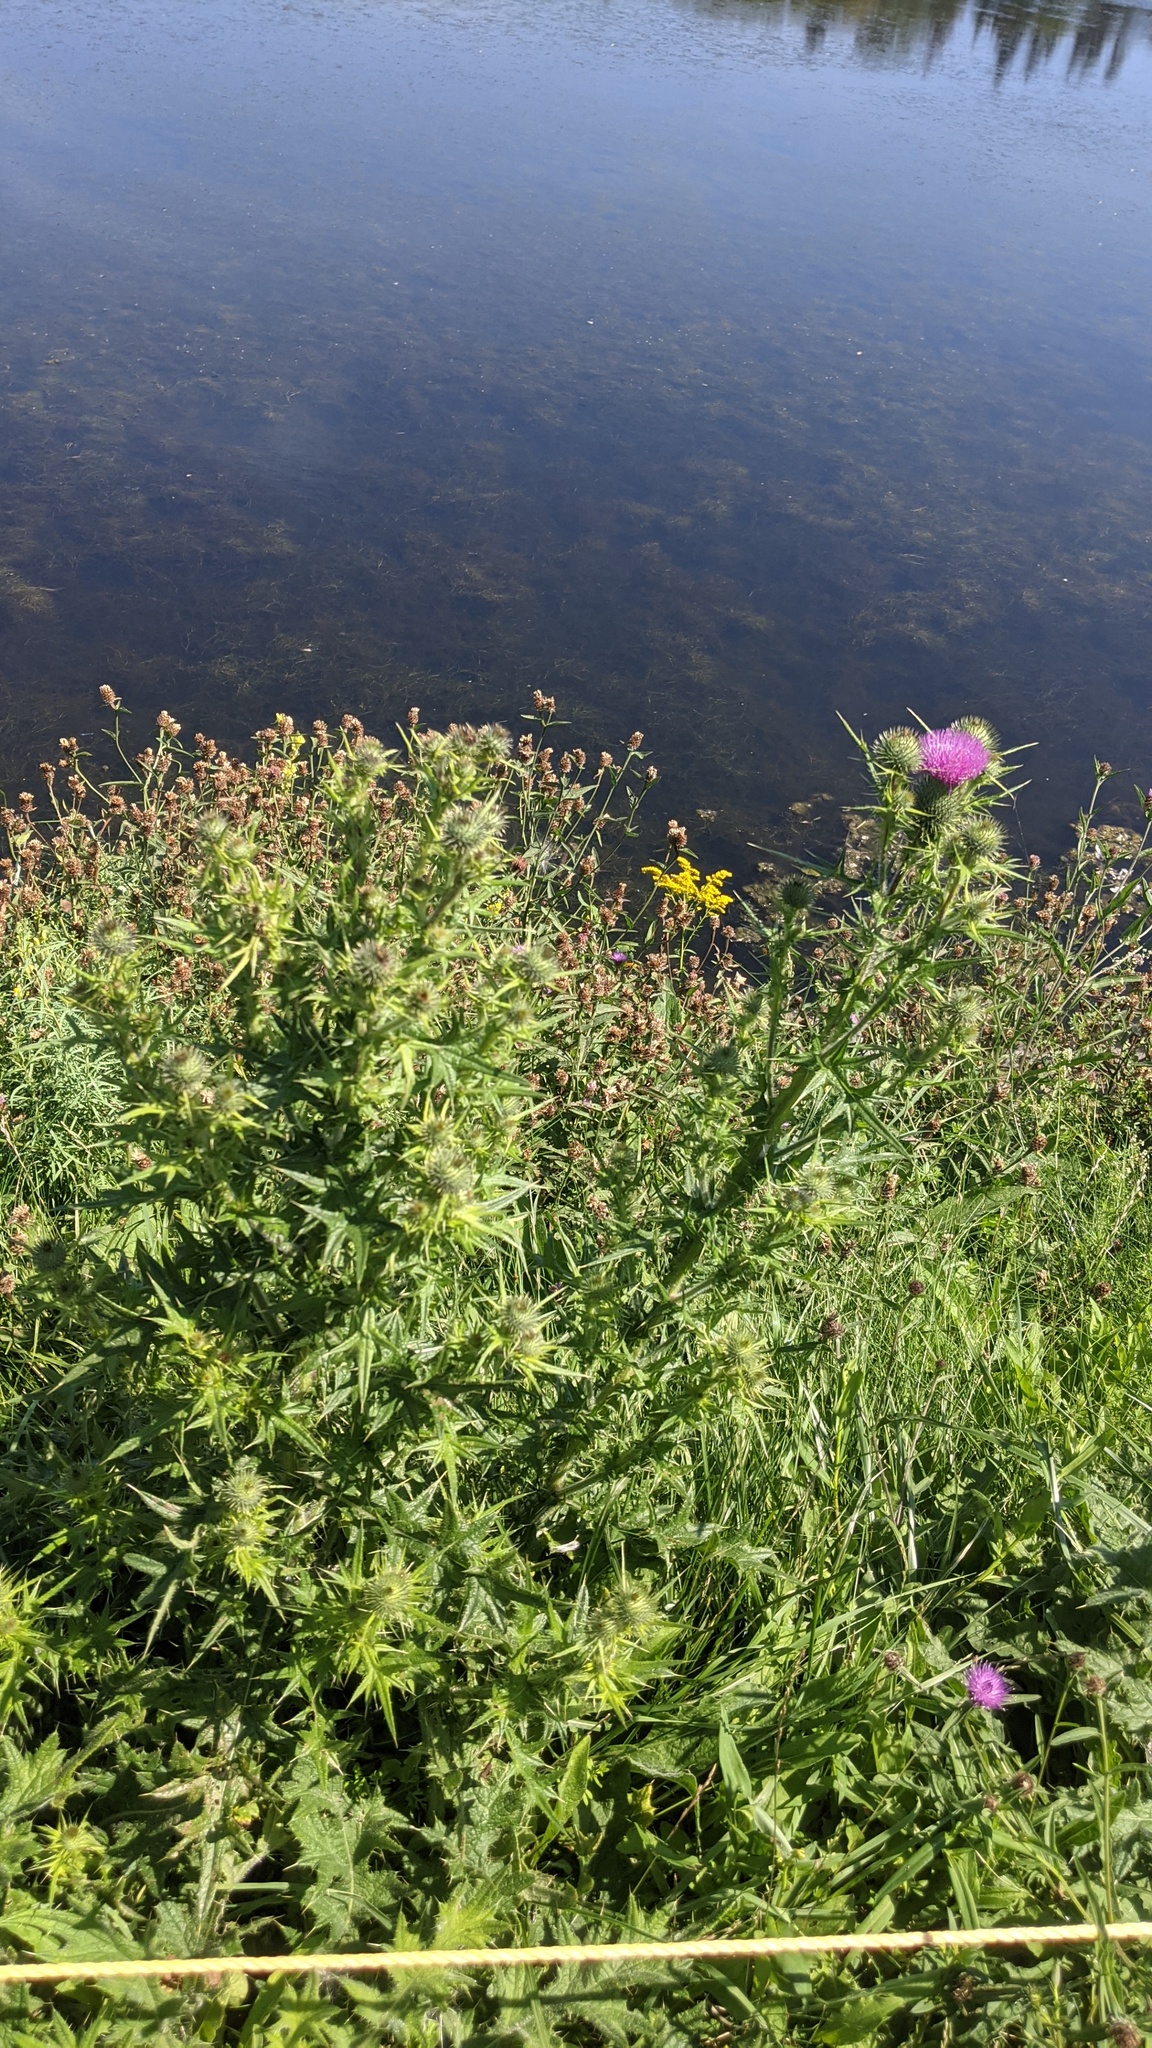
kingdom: Plantae
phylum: Tracheophyta
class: Magnoliopsida
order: Asterales
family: Asteraceae
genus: Cirsium
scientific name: Cirsium vulgare
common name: Bull thistle
